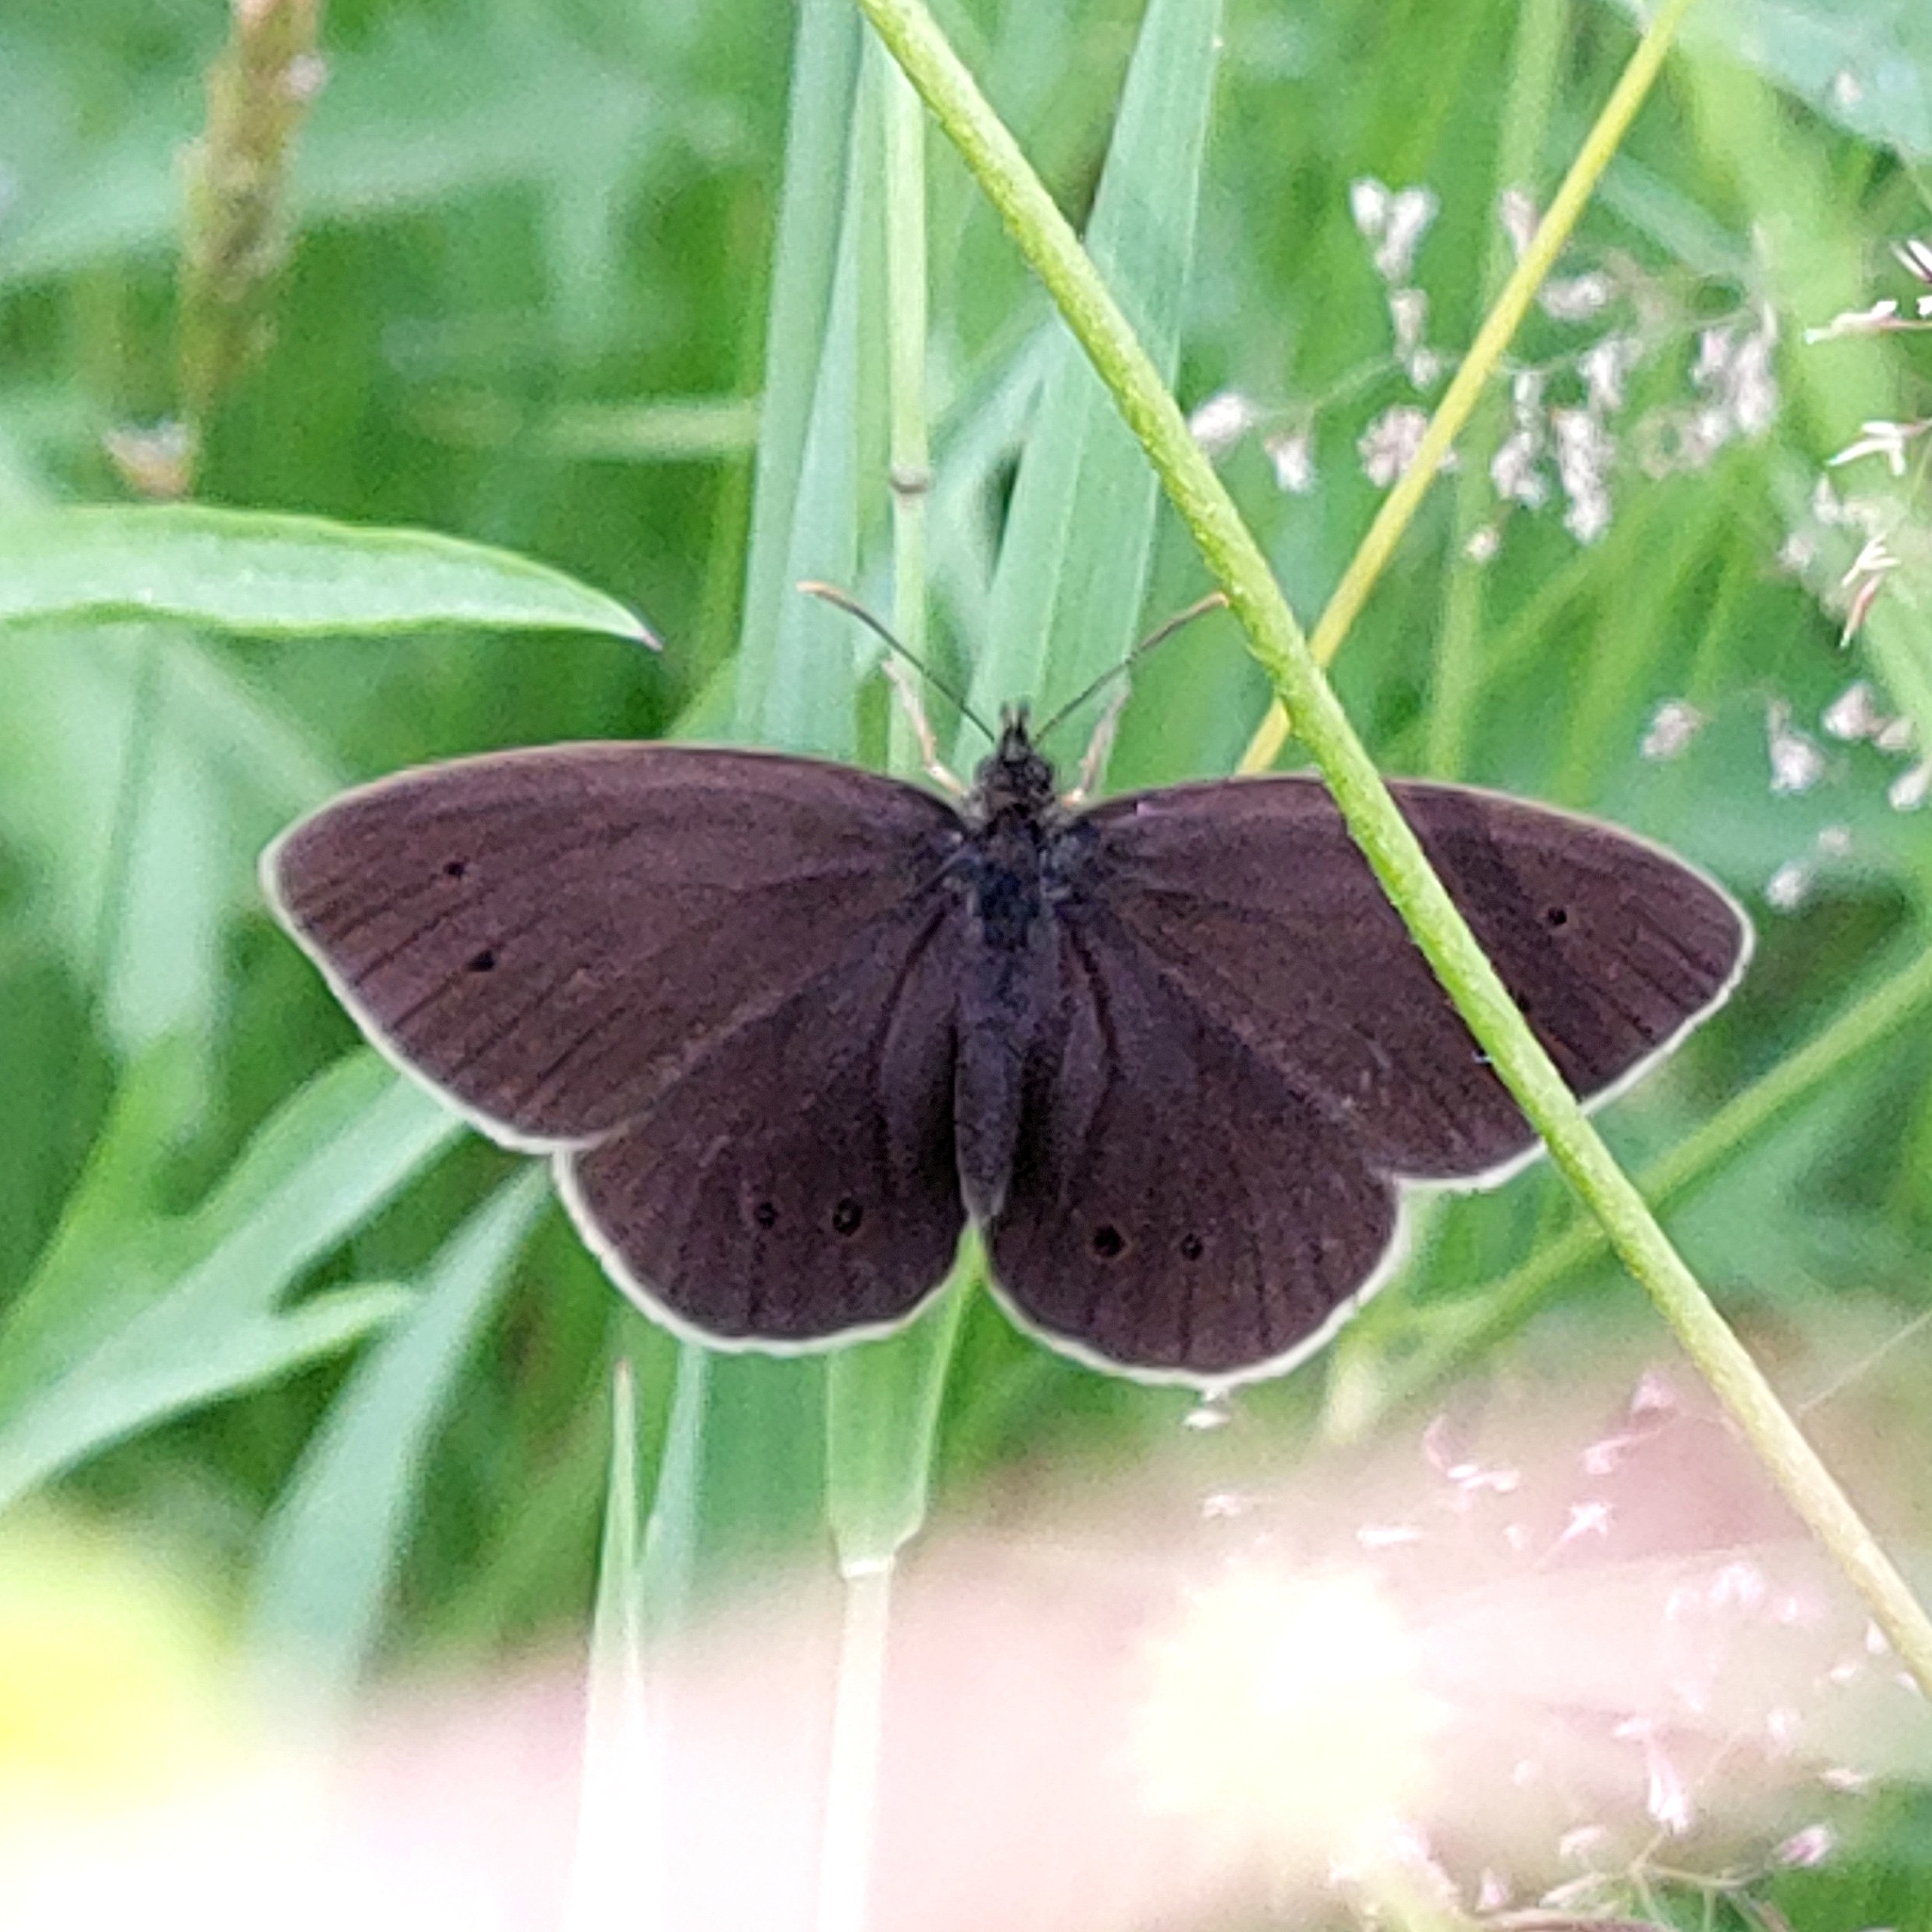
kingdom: Animalia
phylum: Arthropoda
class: Insecta
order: Lepidoptera
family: Nymphalidae
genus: Aphantopus
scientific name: Aphantopus hyperantus
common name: Ringlet
